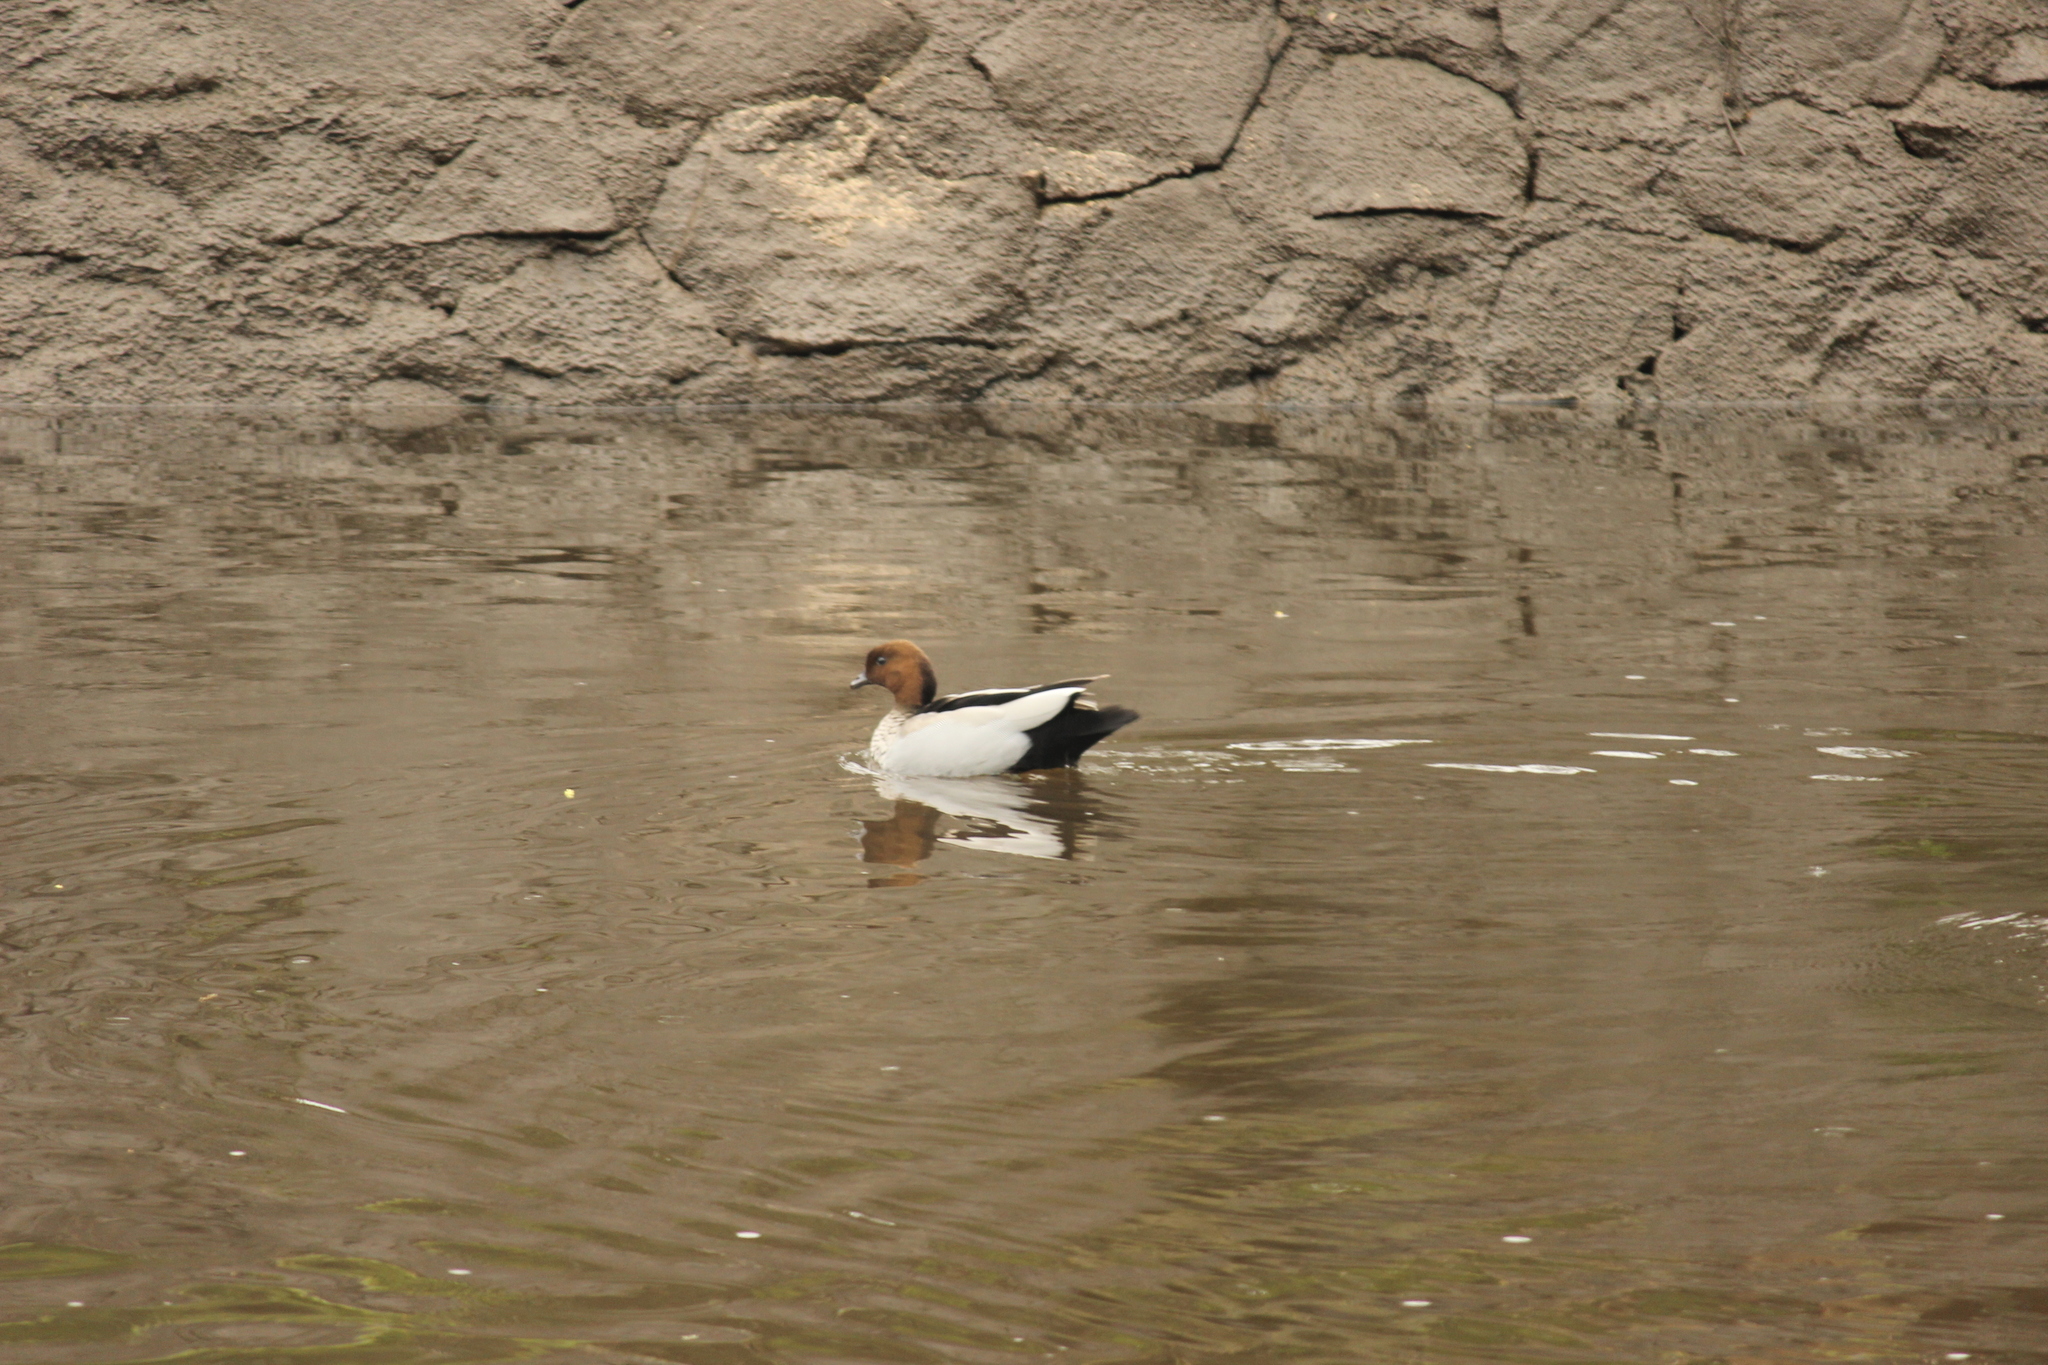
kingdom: Animalia
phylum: Chordata
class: Aves
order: Anseriformes
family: Anatidae
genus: Chenonetta
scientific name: Chenonetta jubata
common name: Maned duck
